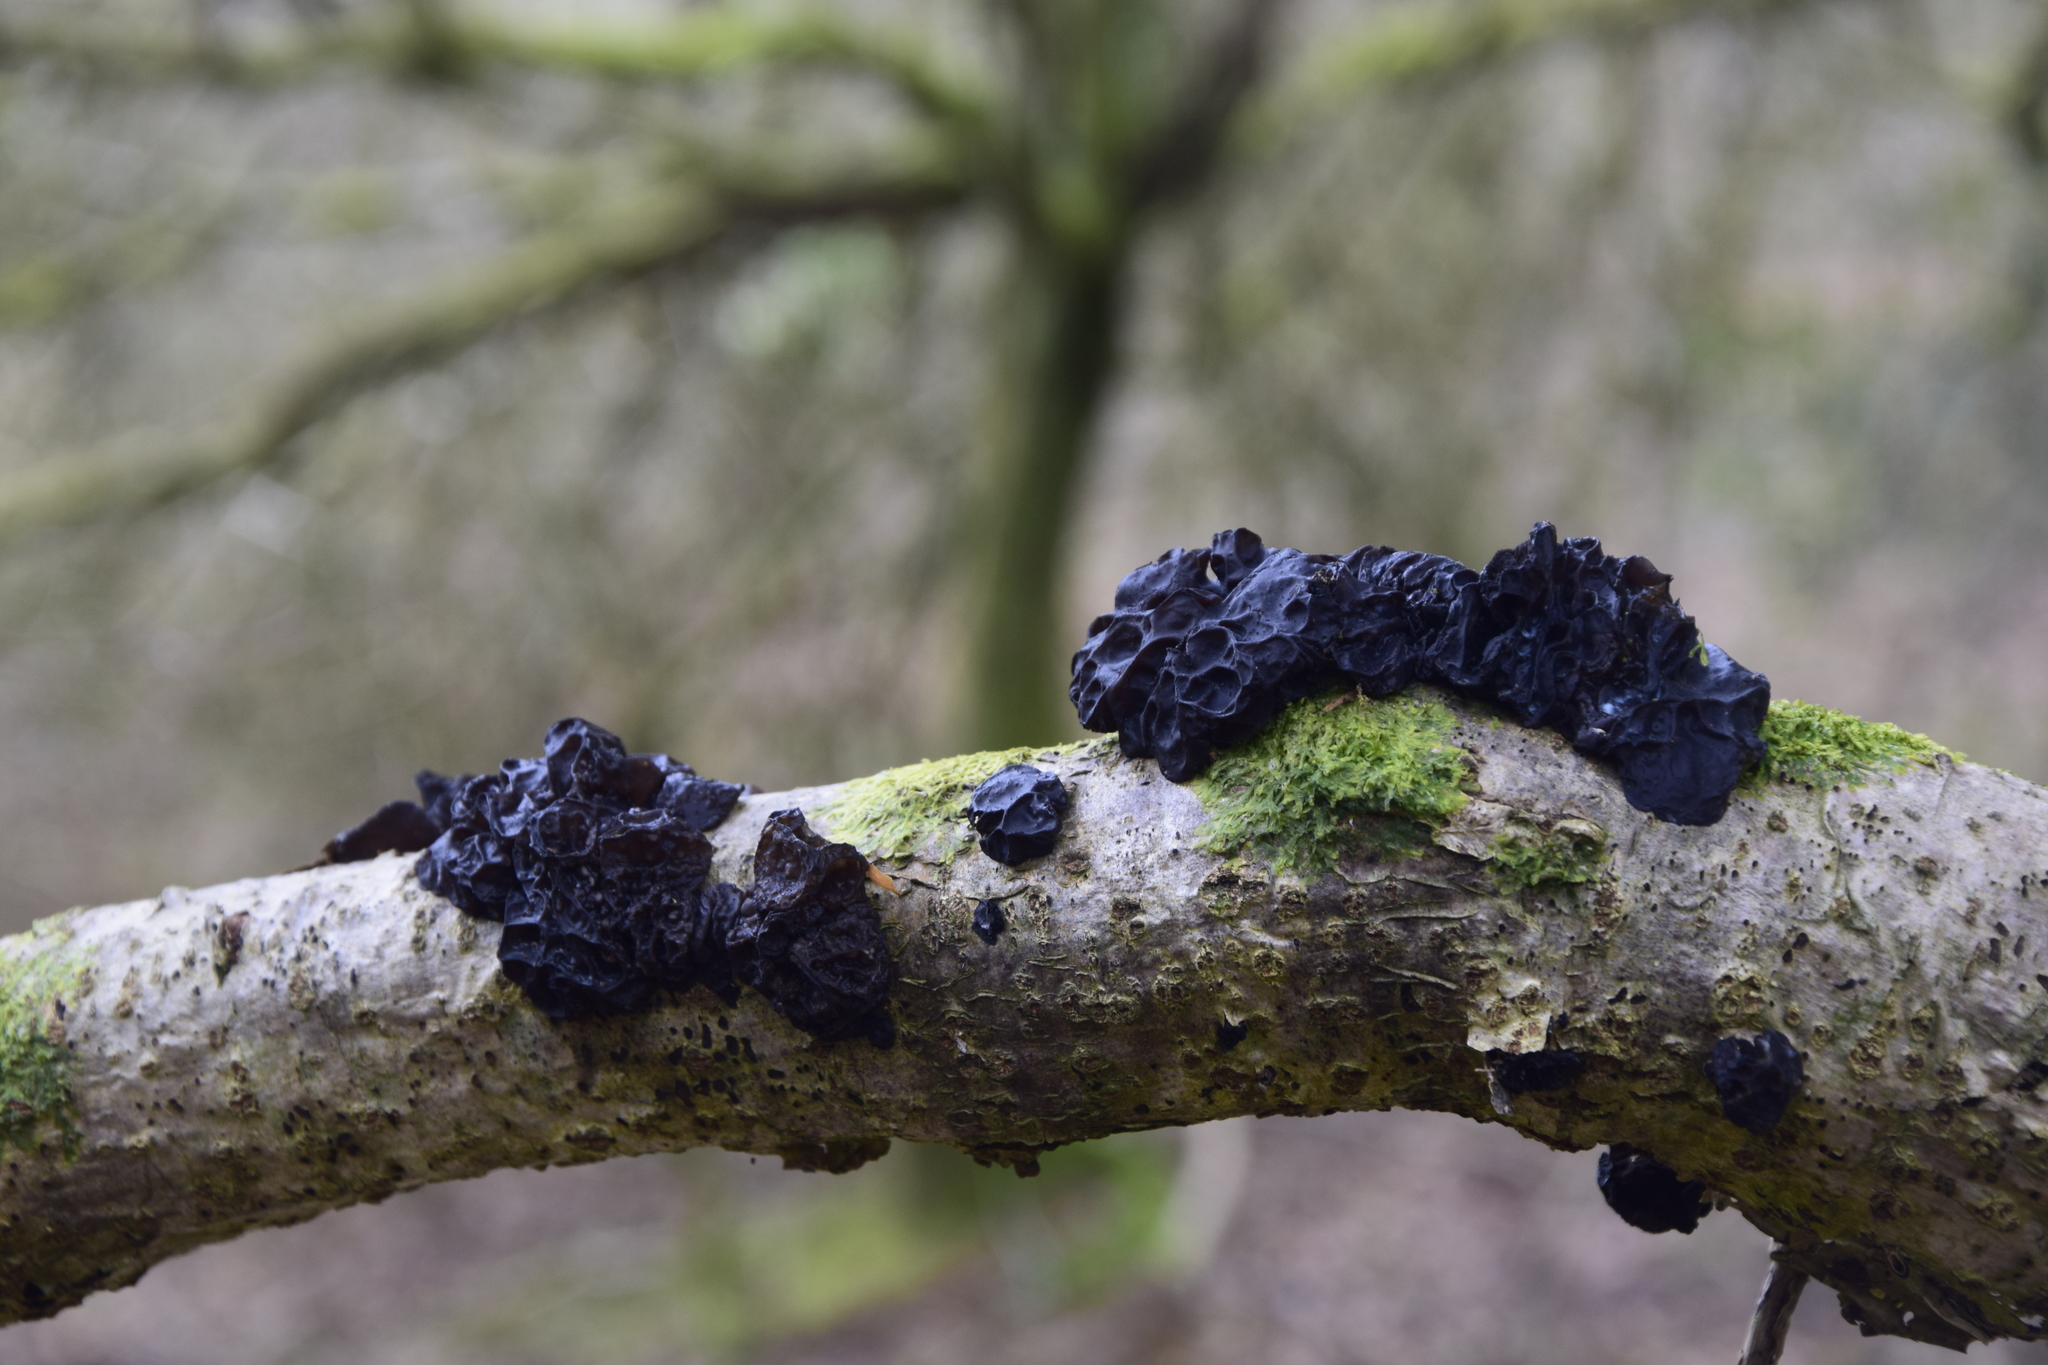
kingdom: Fungi
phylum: Basidiomycota
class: Agaricomycetes
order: Auriculariales
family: Auriculariaceae
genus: Exidia
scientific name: Exidia nigricans
